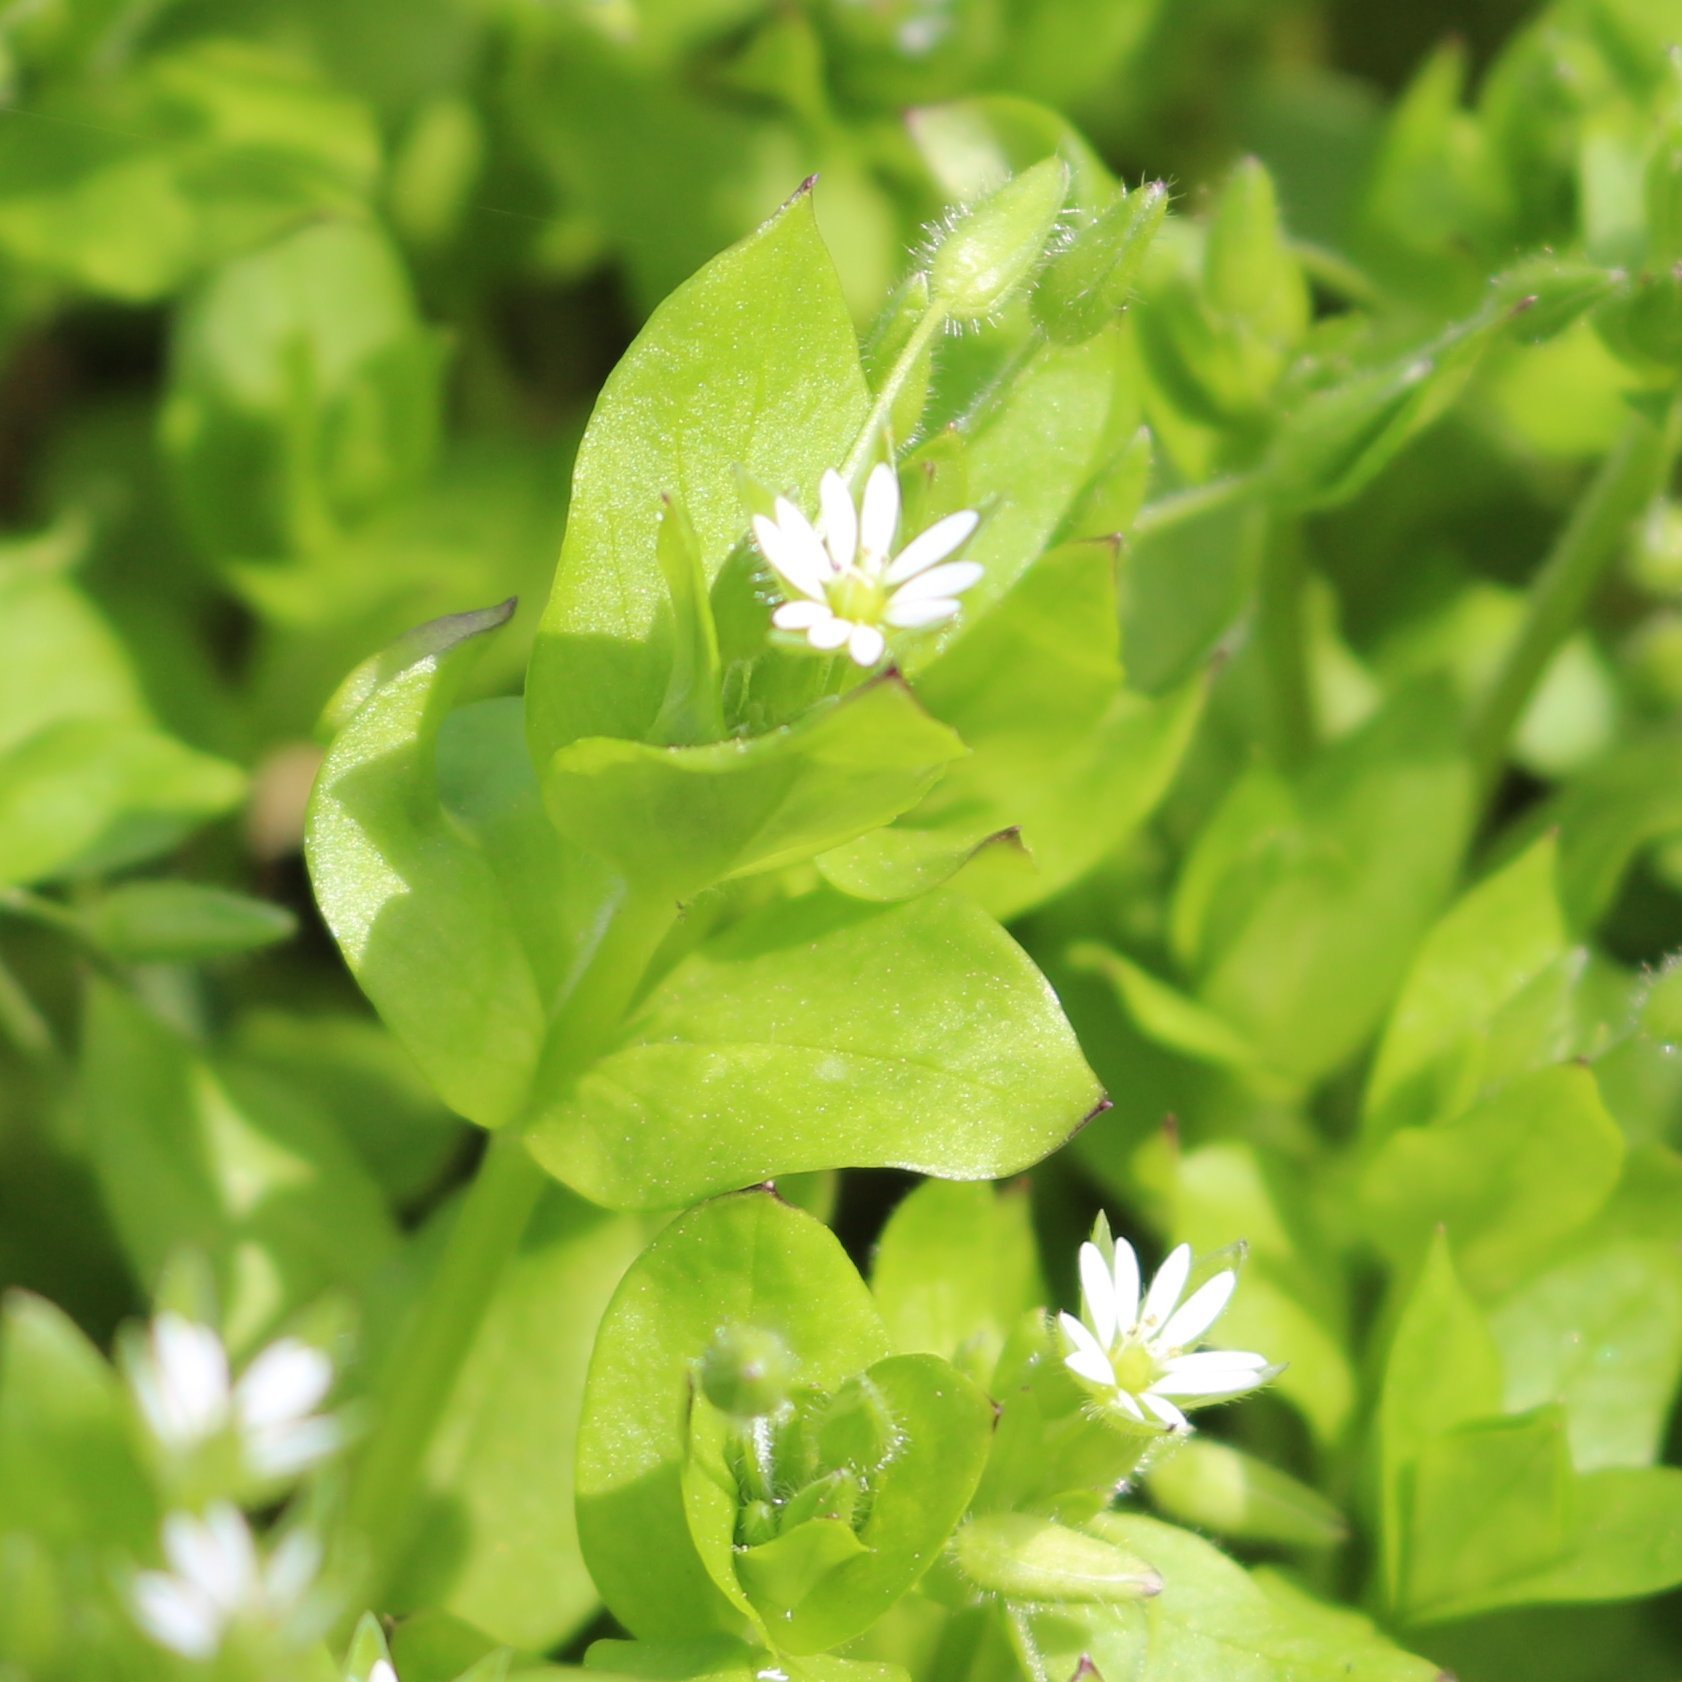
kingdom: Plantae
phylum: Tracheophyta
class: Magnoliopsida
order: Caryophyllales
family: Caryophyllaceae
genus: Stellaria
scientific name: Stellaria media
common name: Common chickweed
